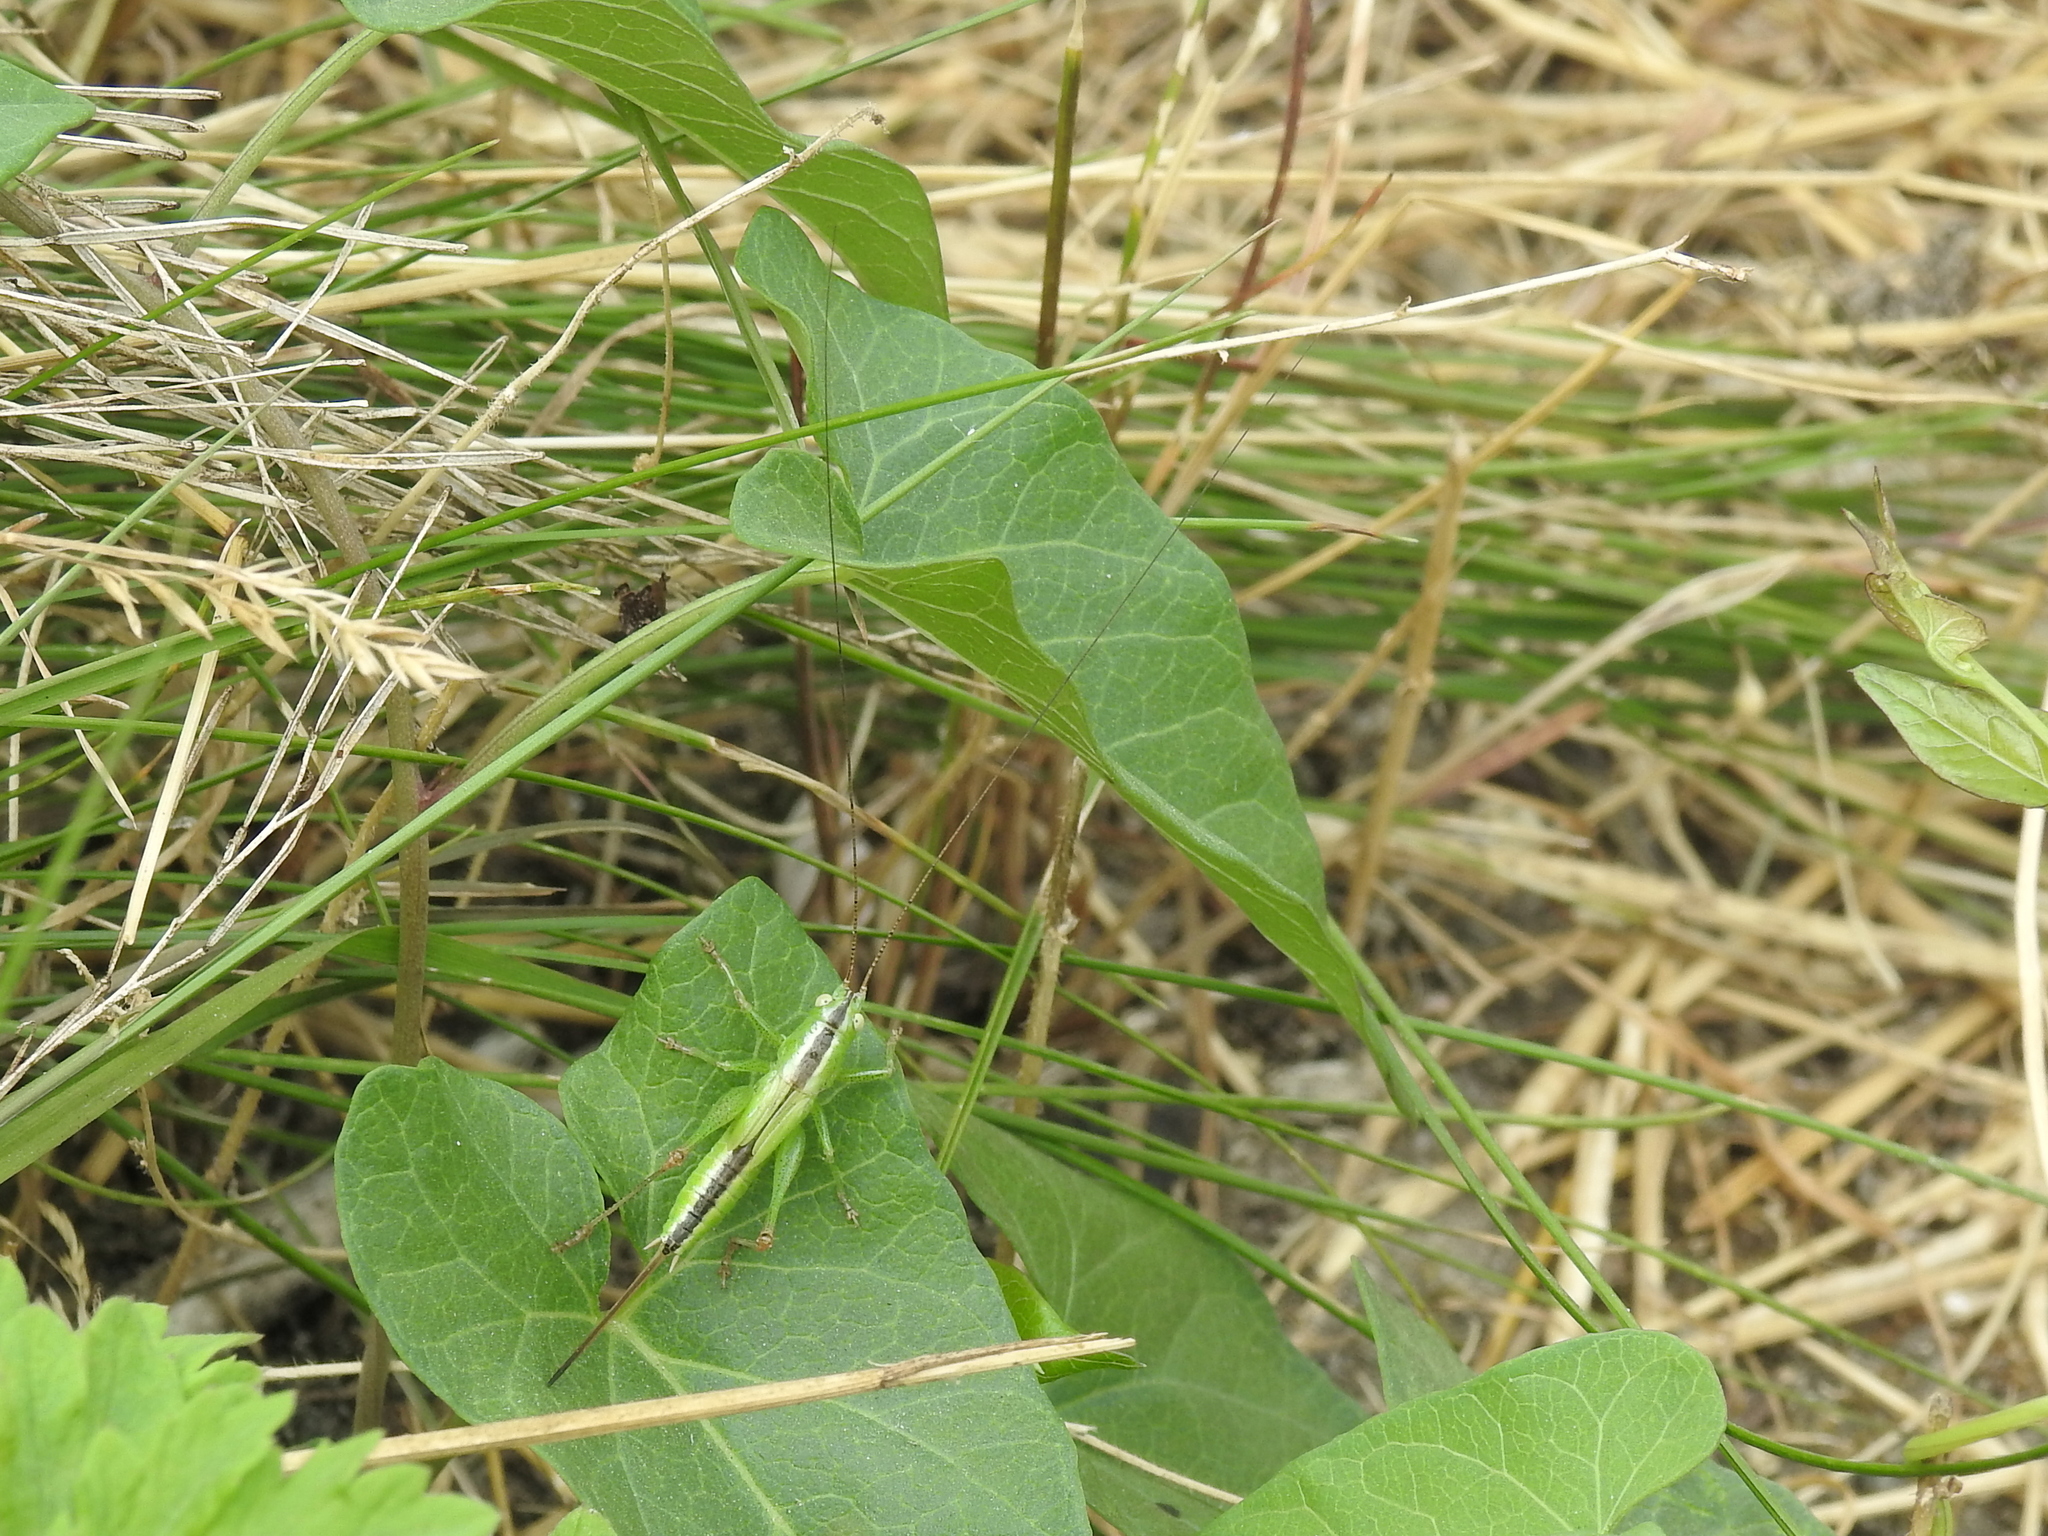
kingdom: Animalia
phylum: Arthropoda
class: Insecta
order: Orthoptera
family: Tettigoniidae
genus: Conocephalus
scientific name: Conocephalus fuscus
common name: Long-winged conehead
